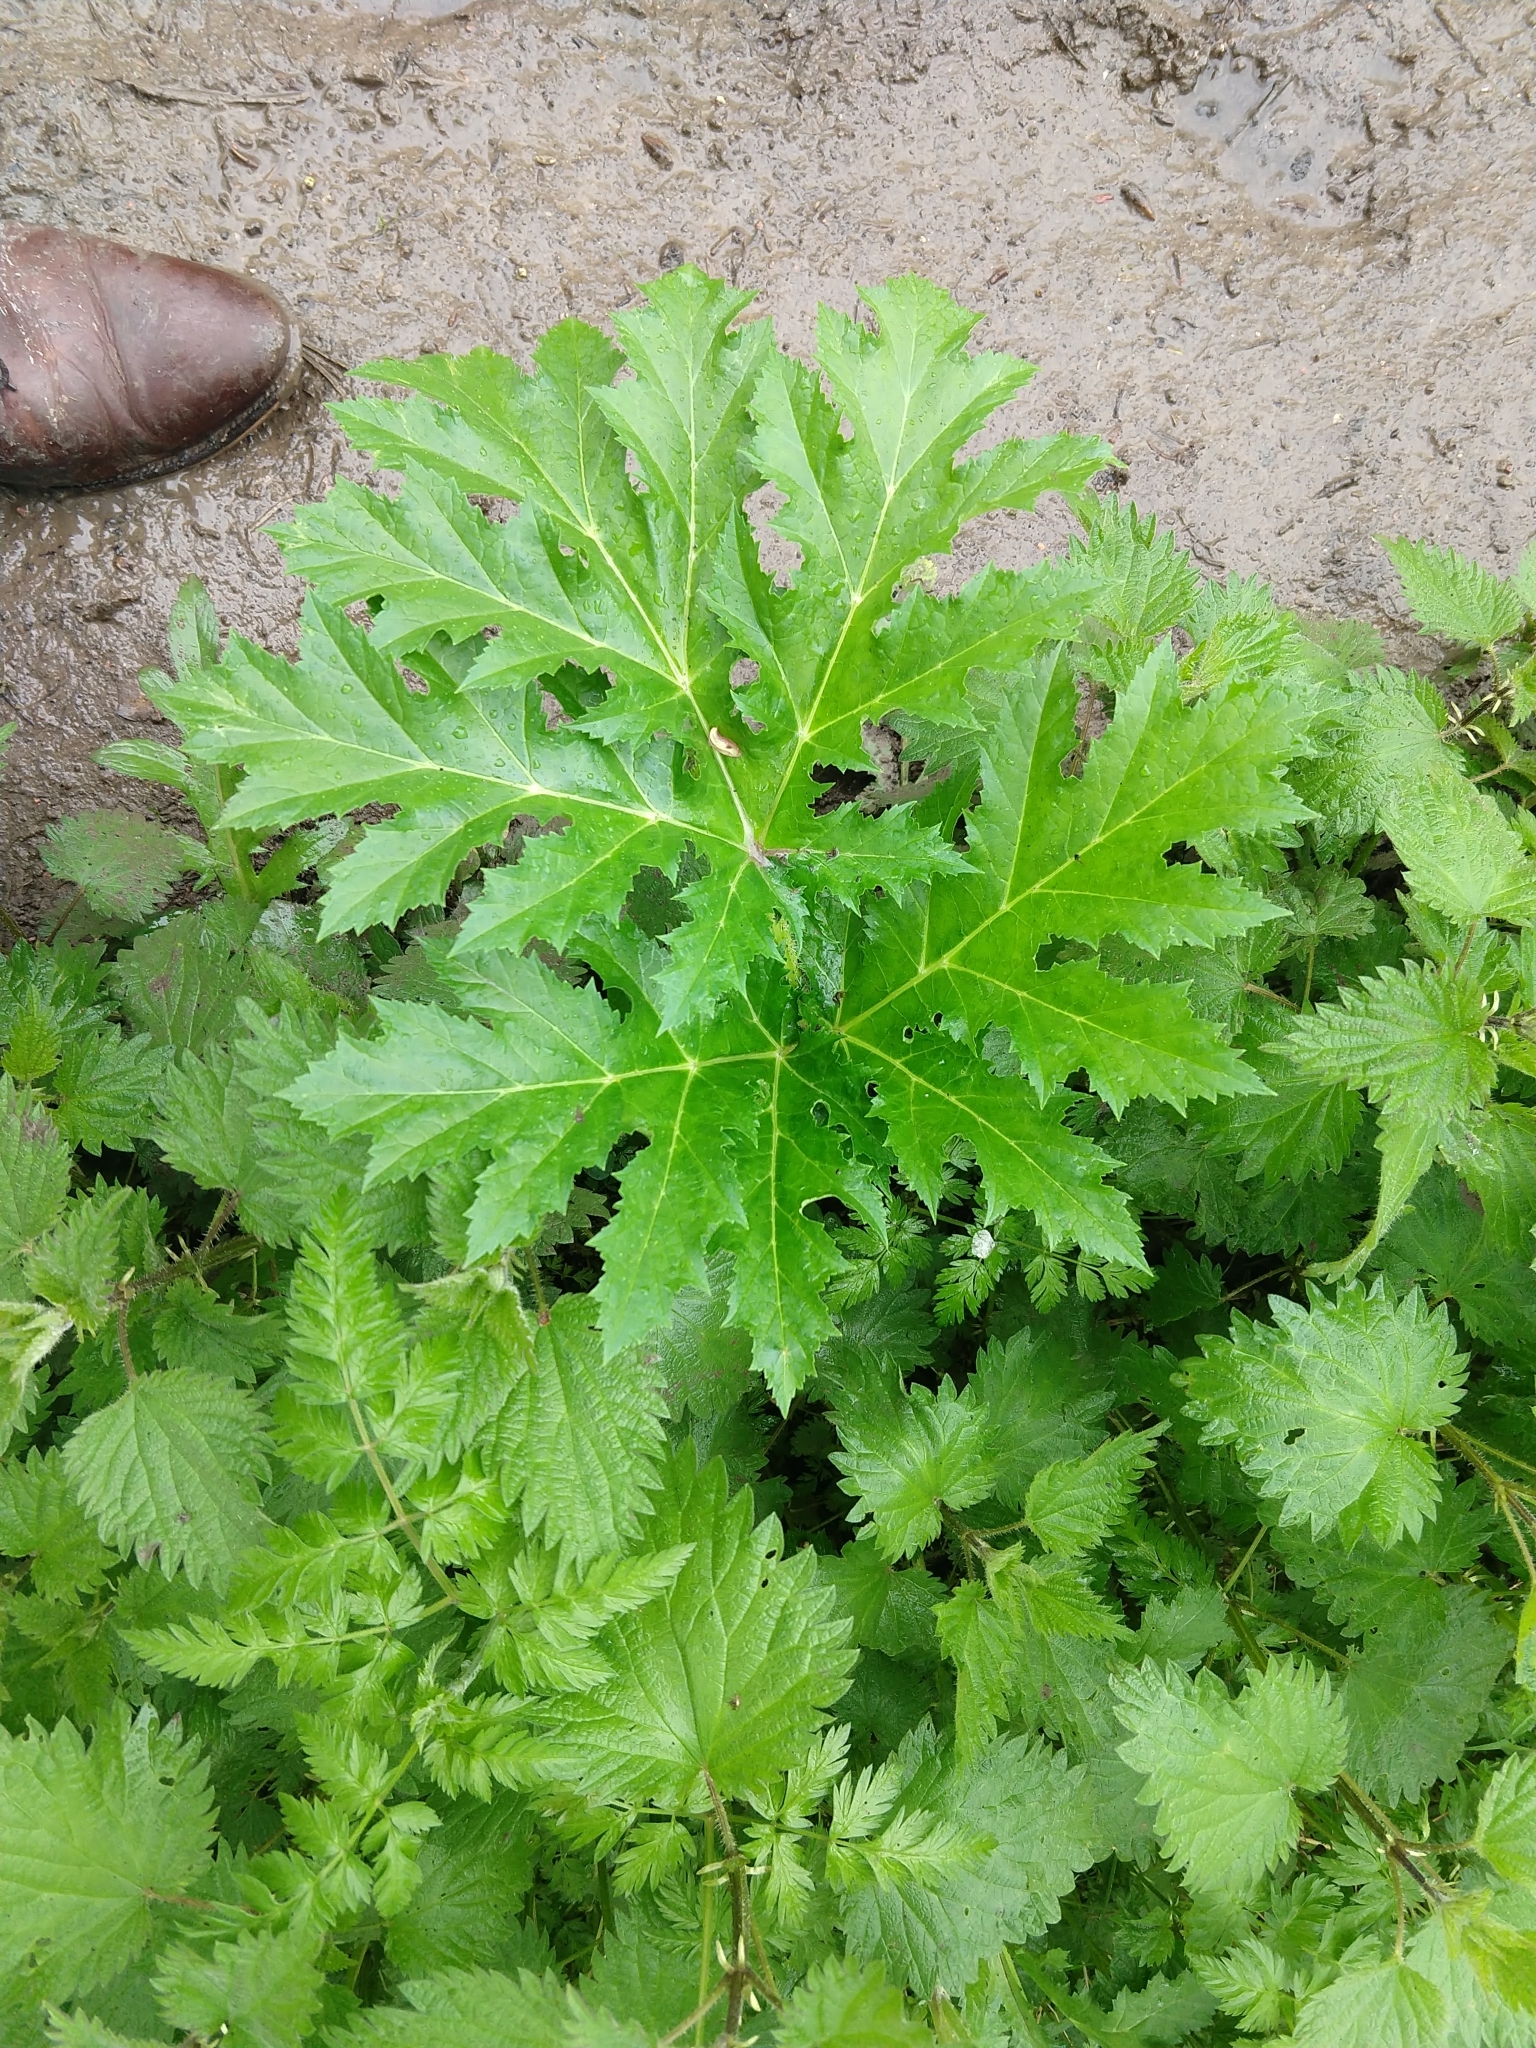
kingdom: Plantae
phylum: Tracheophyta
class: Magnoliopsida
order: Apiales
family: Apiaceae
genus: Heracleum
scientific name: Heracleum mantegazzianum
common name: Giant hogweed
